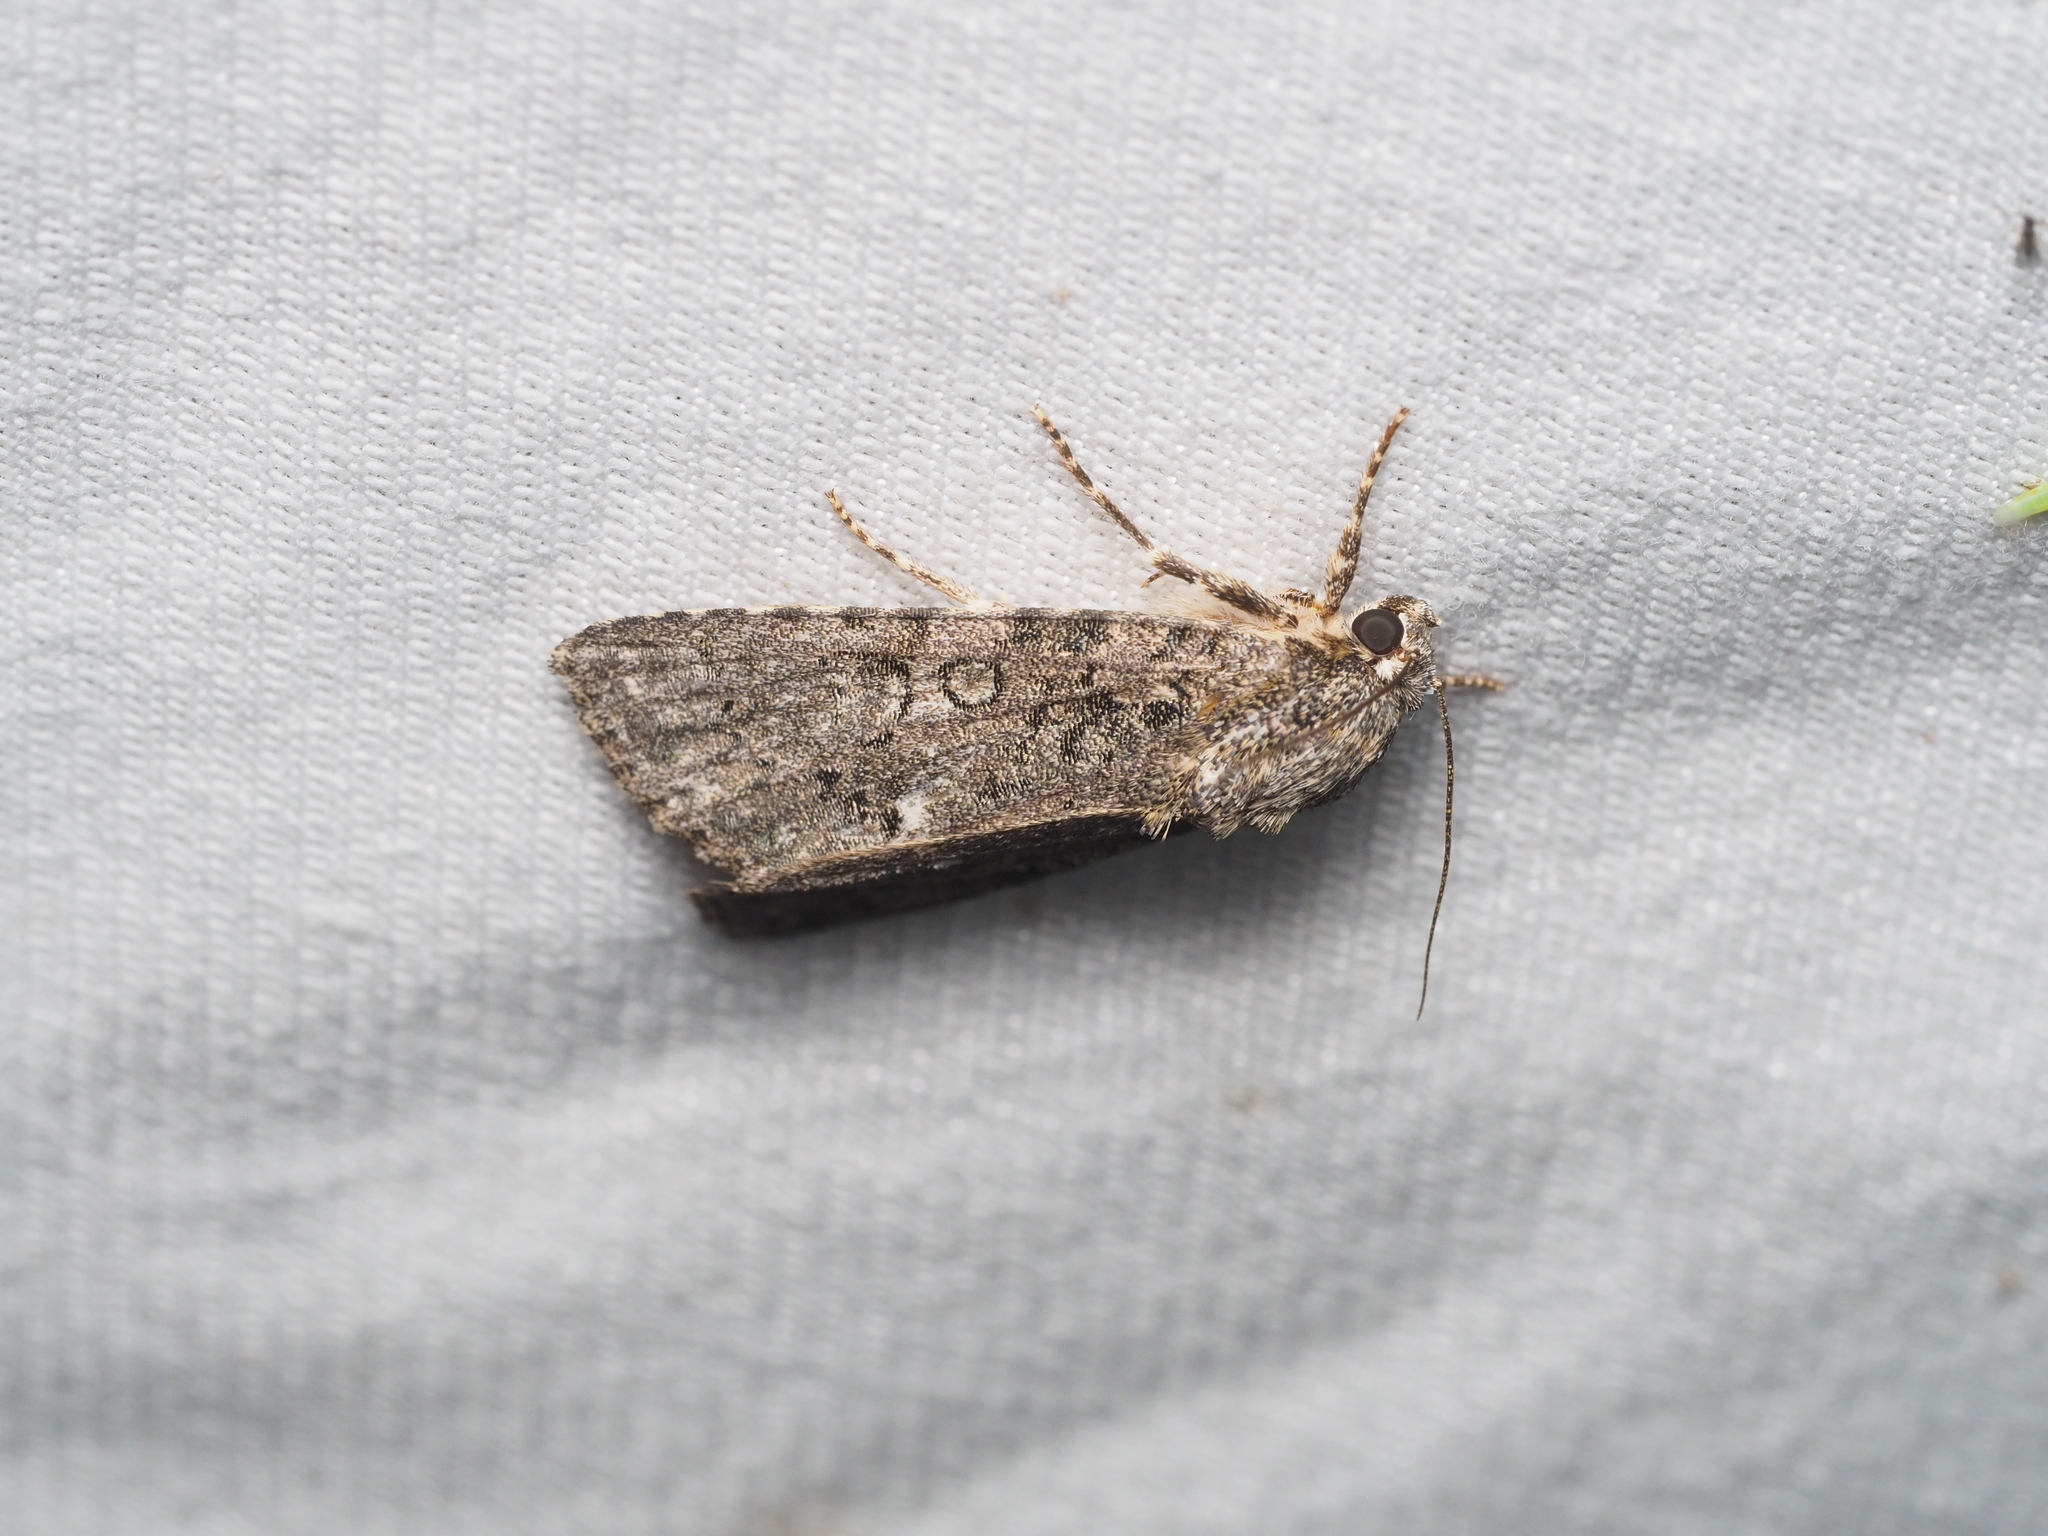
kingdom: Animalia
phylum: Arthropoda
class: Insecta
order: Lepidoptera
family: Noctuidae
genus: Acronicta
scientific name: Acronicta rumicis
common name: Knot grass
